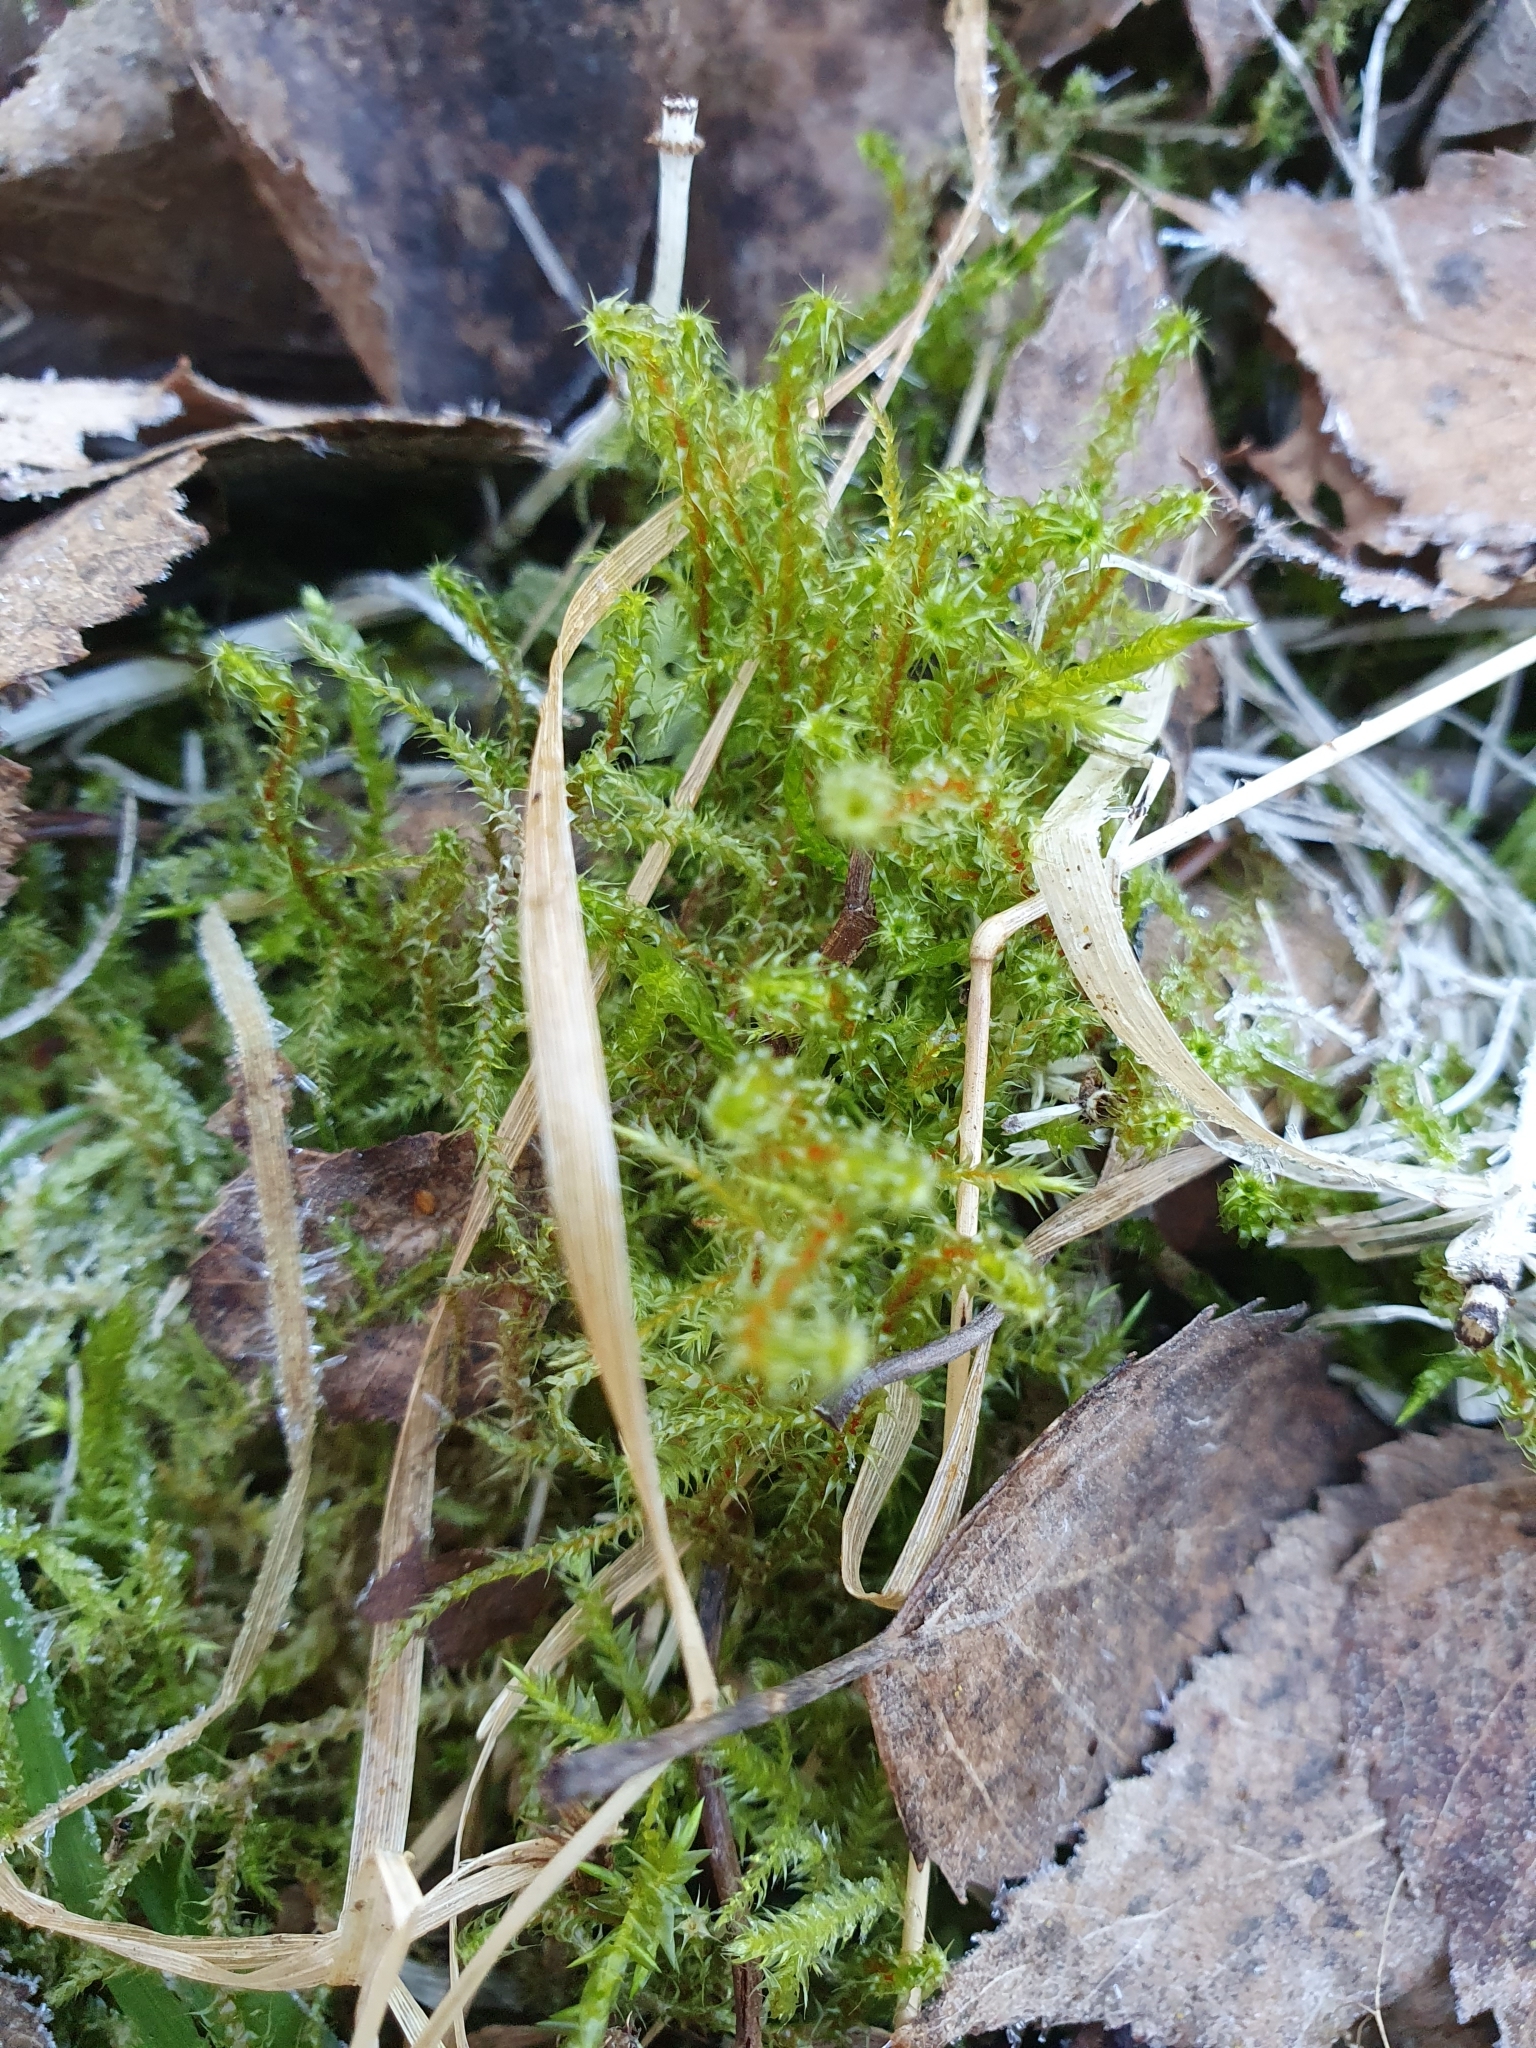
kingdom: Plantae
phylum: Bryophyta
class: Bryopsida
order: Hypnales
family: Hylocomiaceae
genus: Rhytidiadelphus
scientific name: Rhytidiadelphus squarrosus
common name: Springy turf-moss
